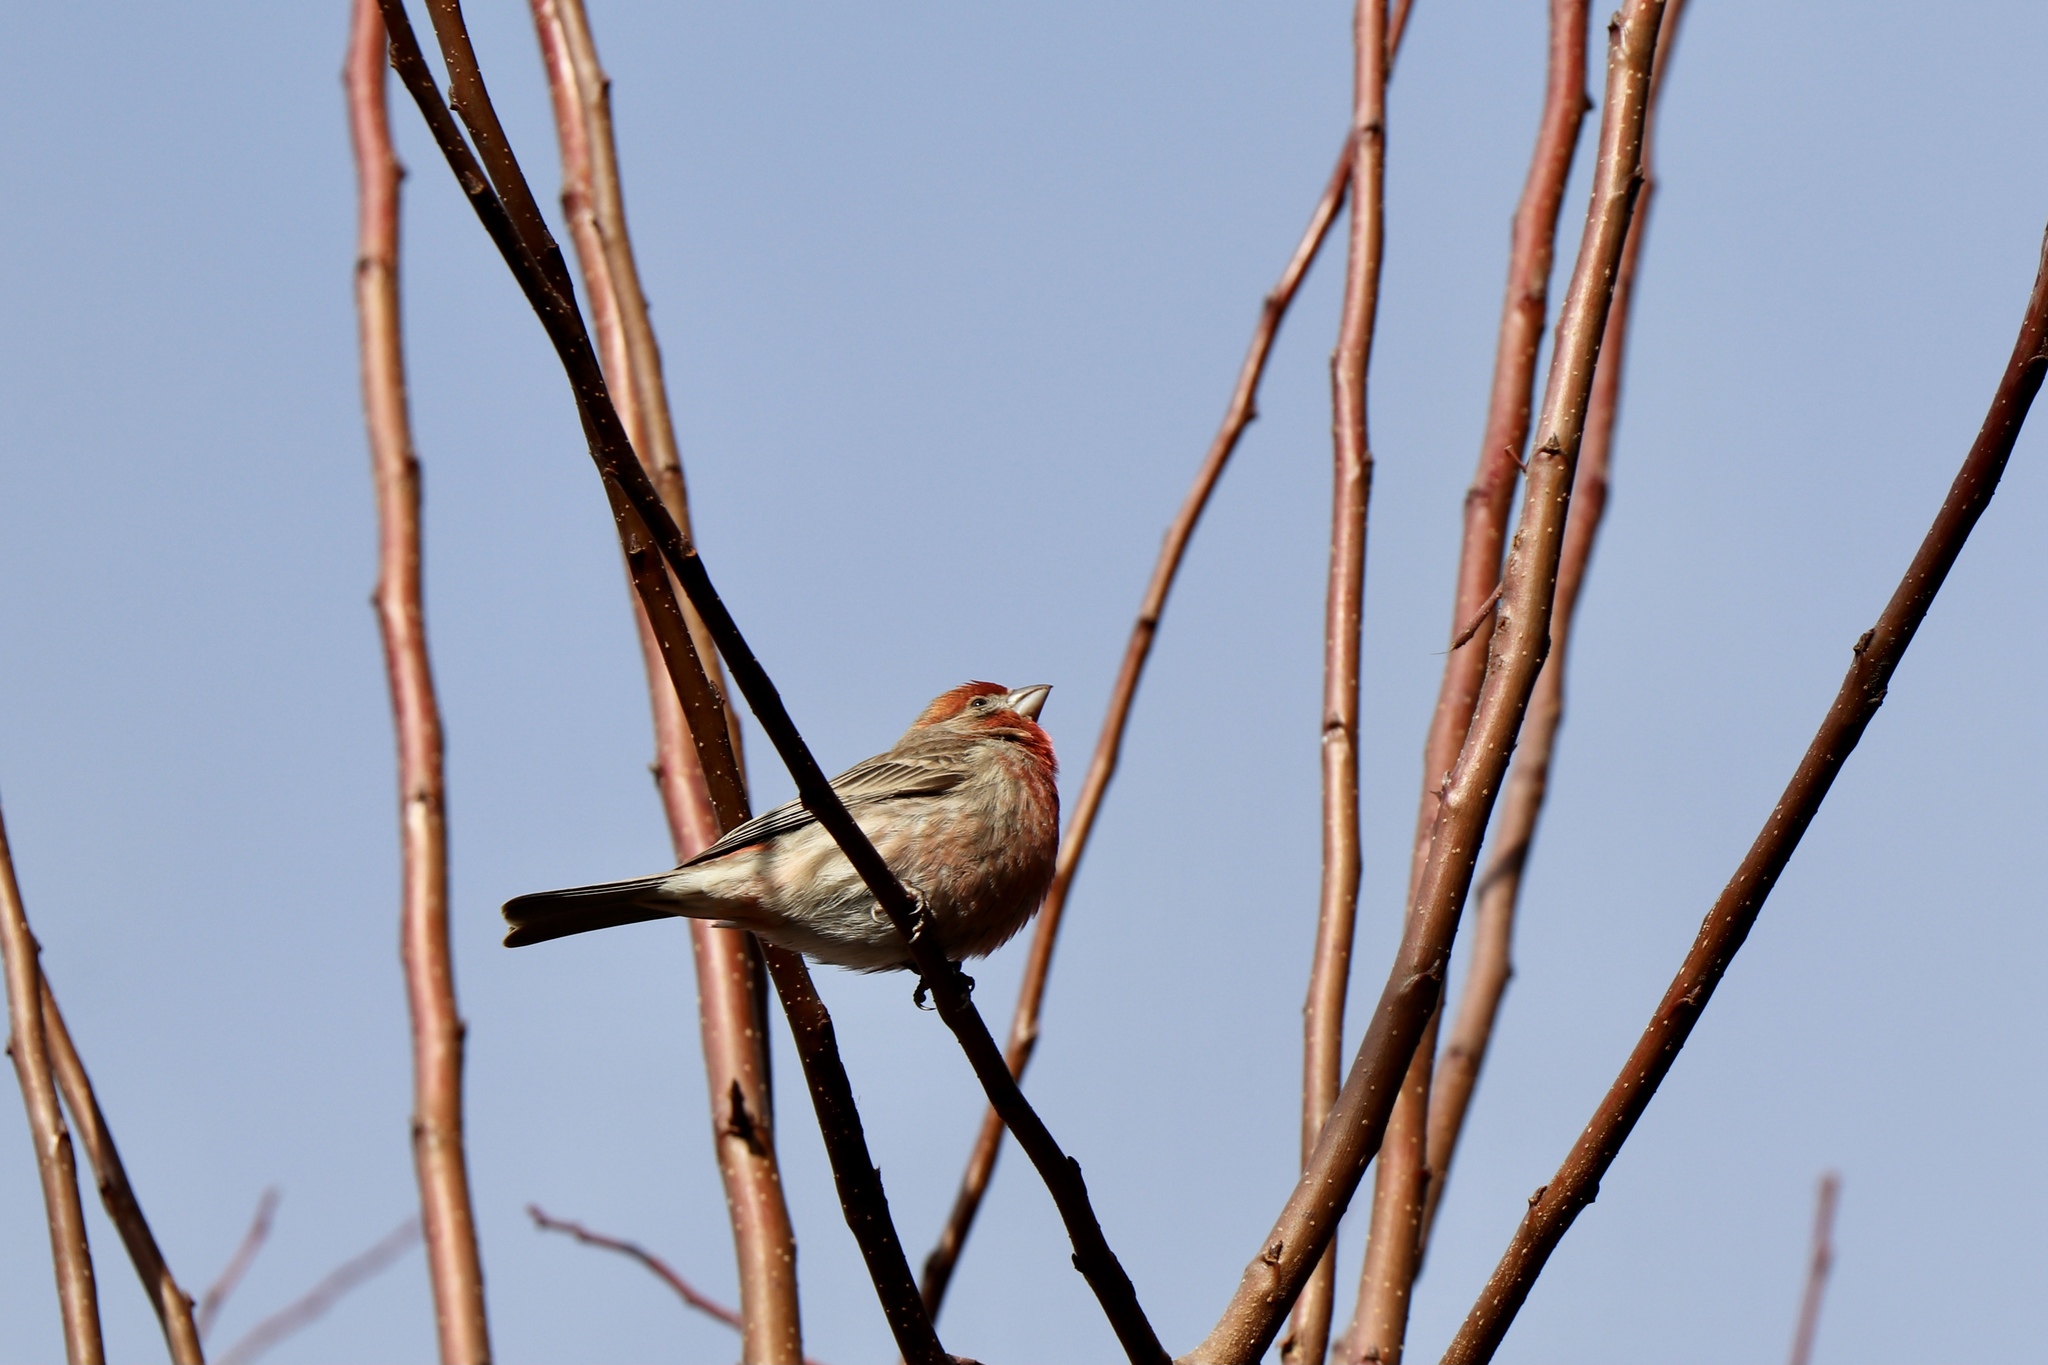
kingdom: Animalia
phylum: Chordata
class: Aves
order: Passeriformes
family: Fringillidae
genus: Haemorhous
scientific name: Haemorhous mexicanus
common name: House finch
